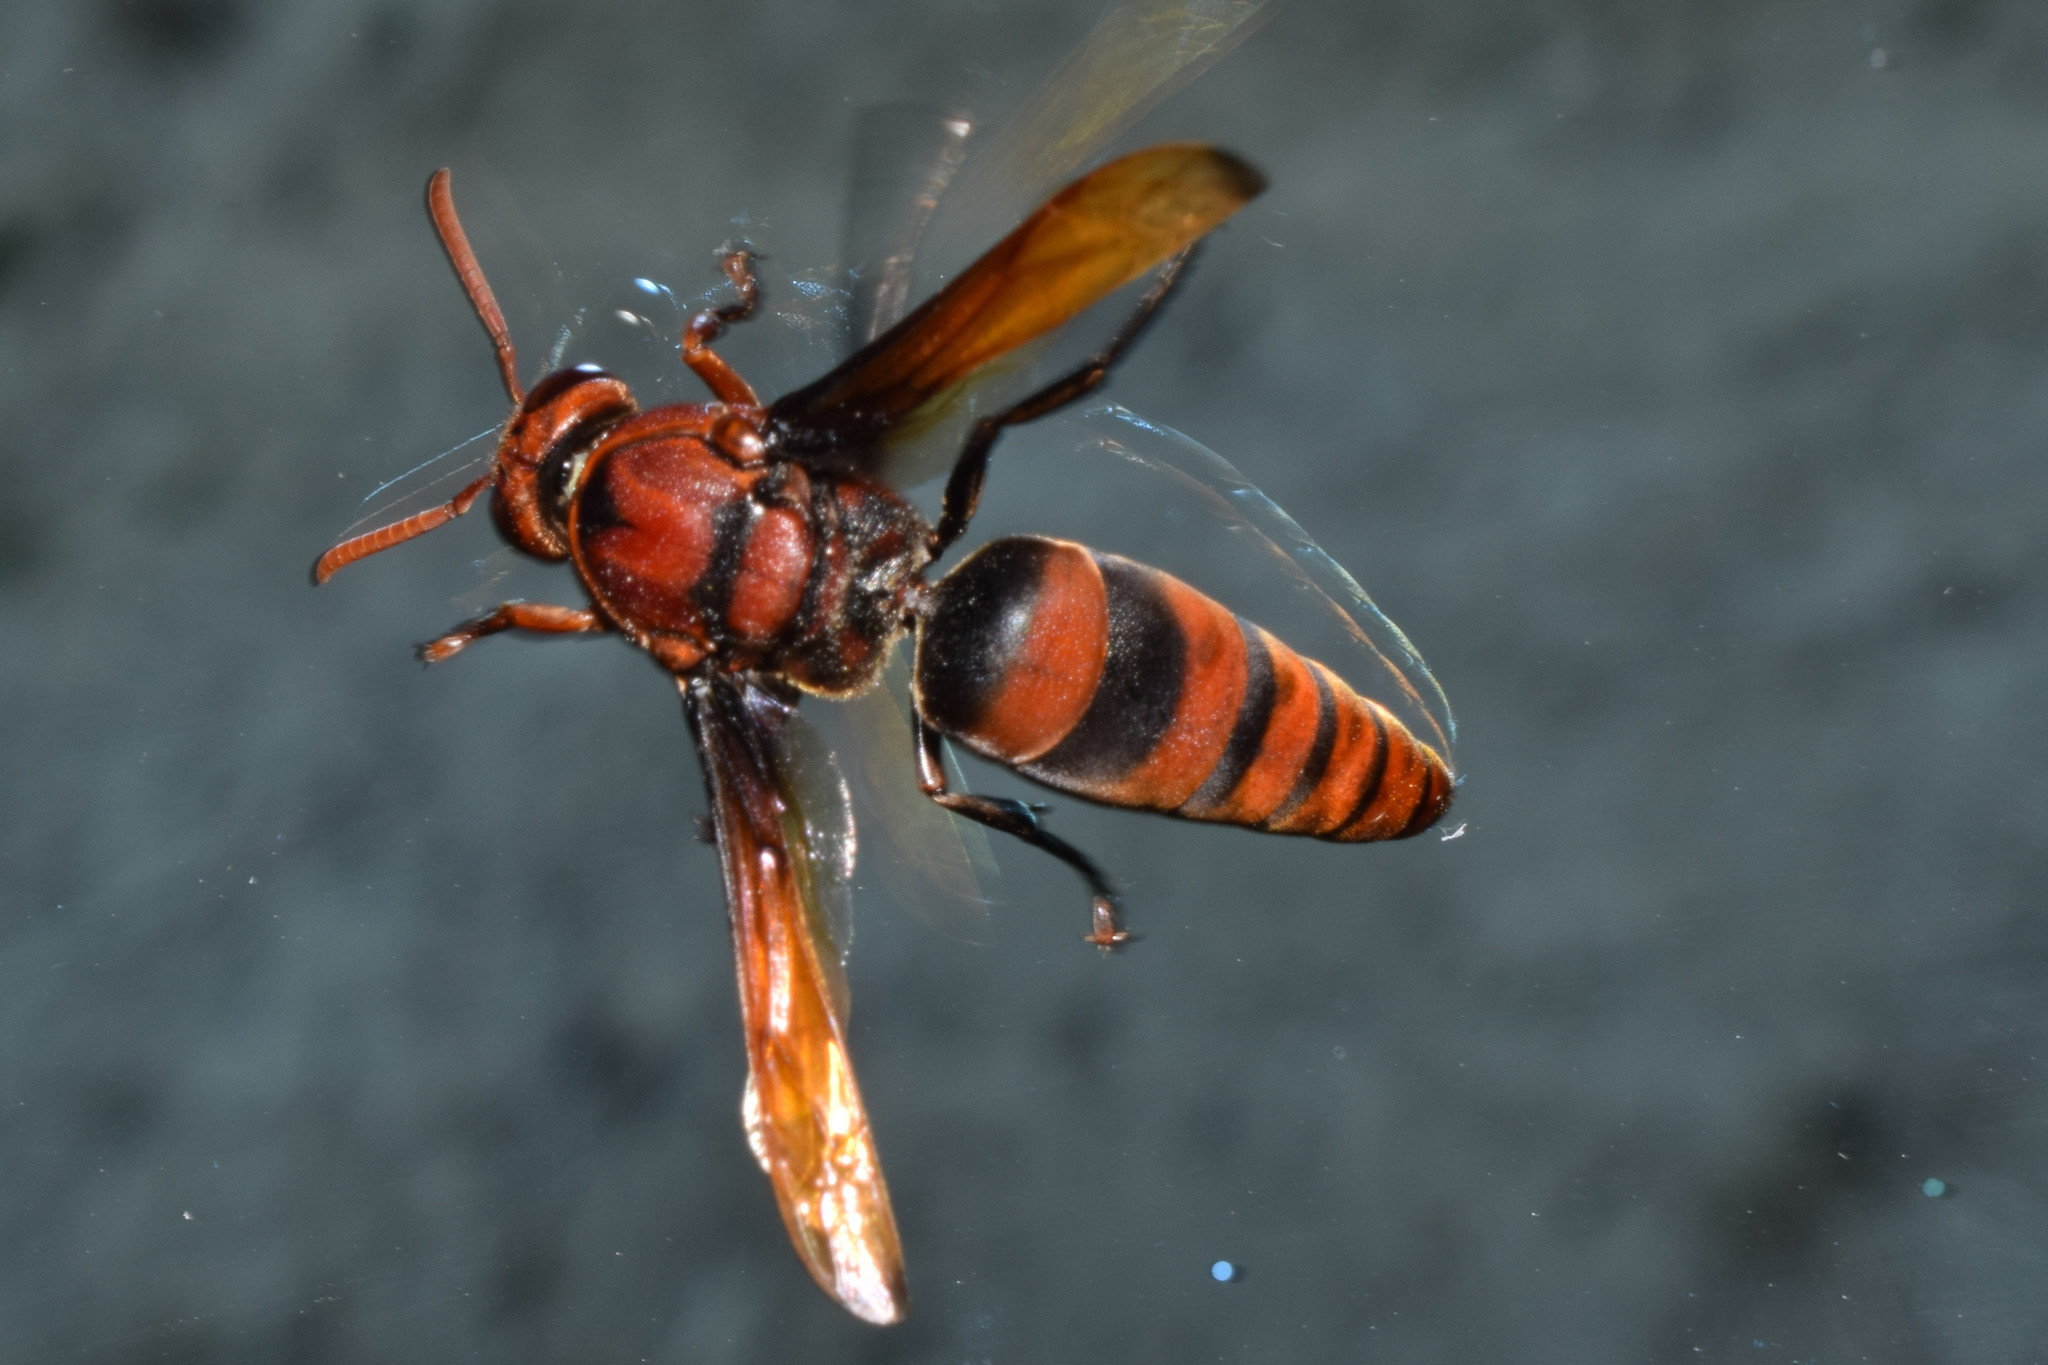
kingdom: Animalia
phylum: Arthropoda
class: Insecta
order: Hymenoptera
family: Eumenidae
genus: Rhynchium
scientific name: Rhynchium brunneum
